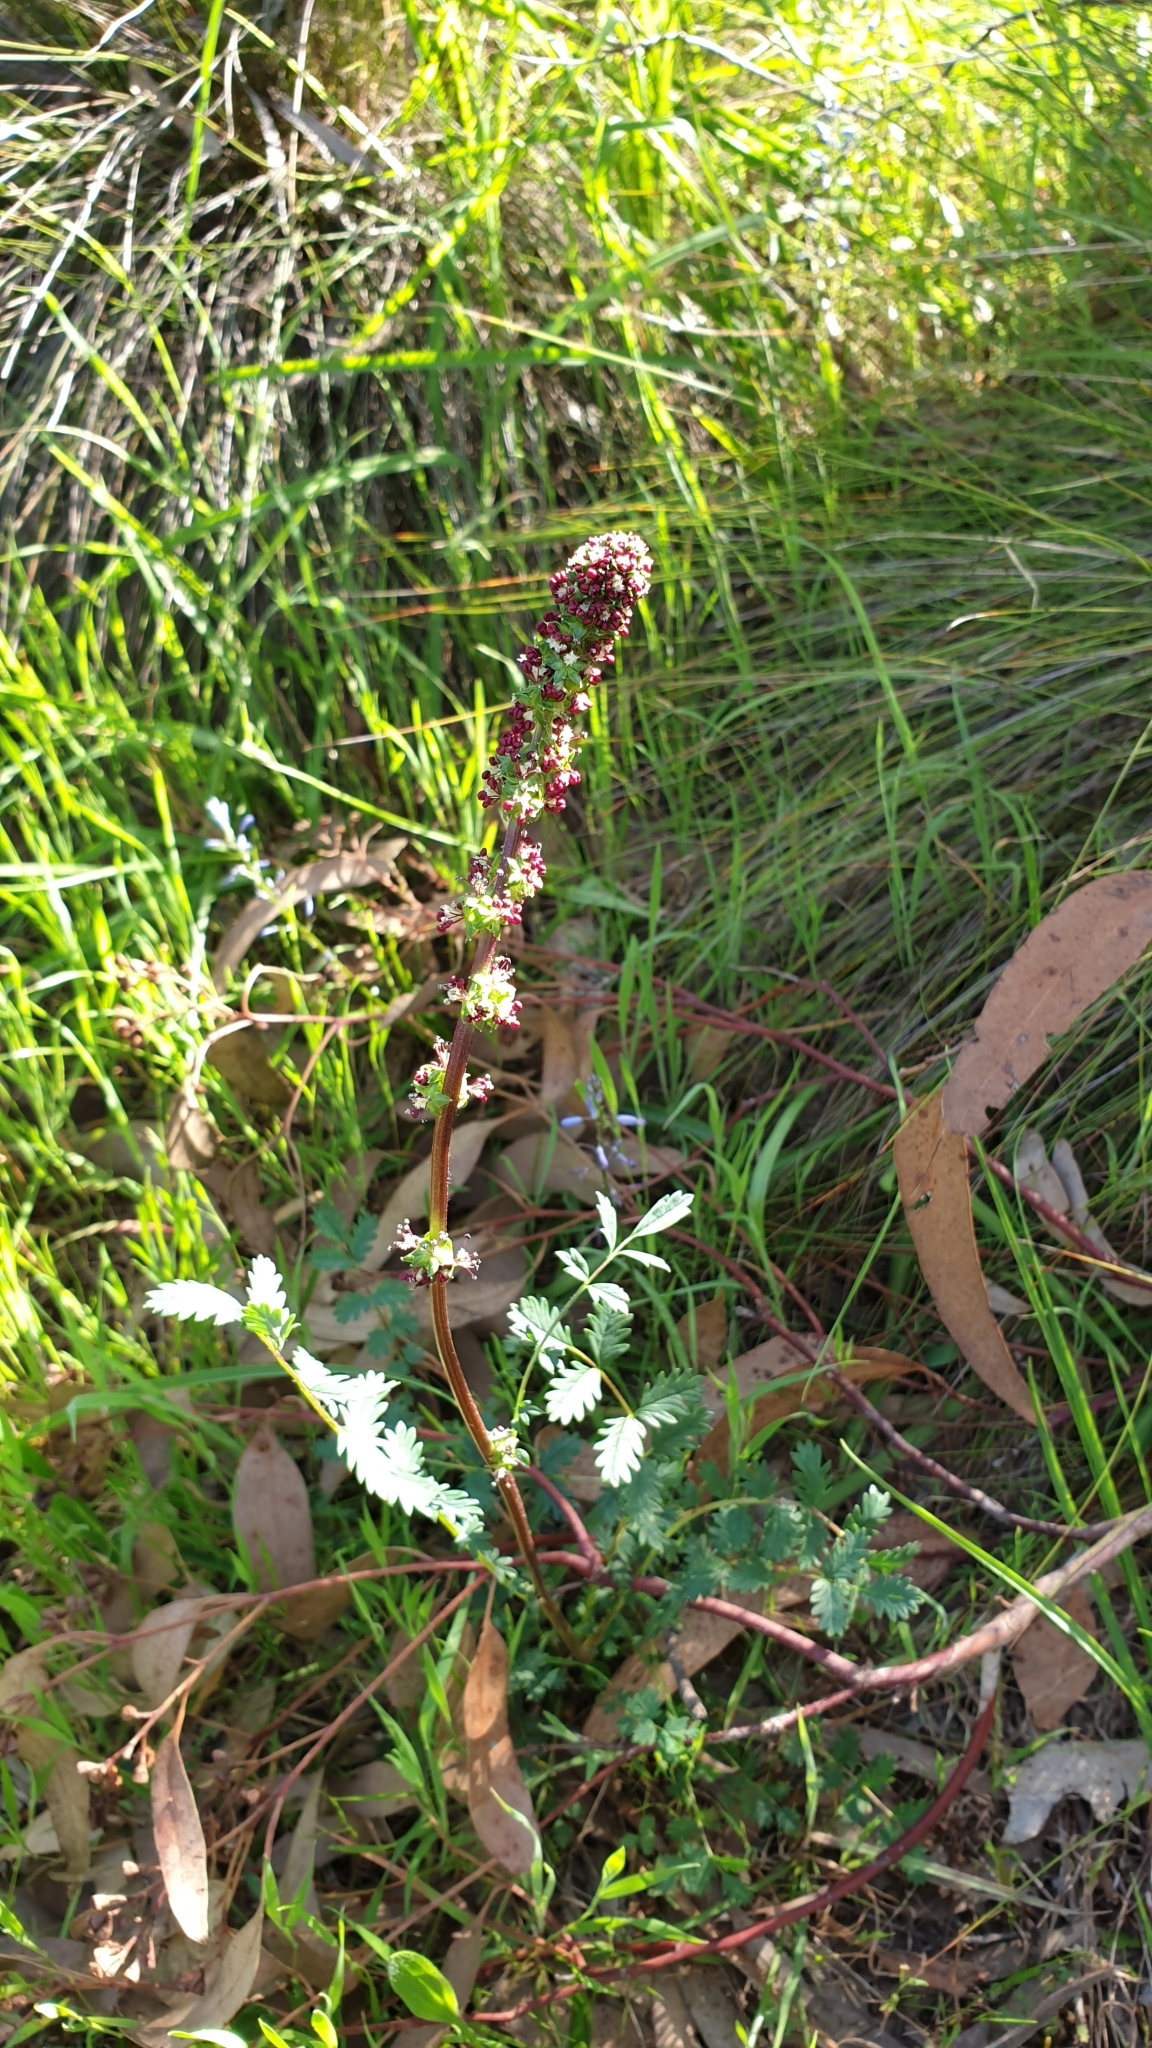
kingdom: Plantae
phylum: Tracheophyta
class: Magnoliopsida
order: Rosales
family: Rosaceae
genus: Acaena
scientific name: Acaena echinata
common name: Sheepbur
